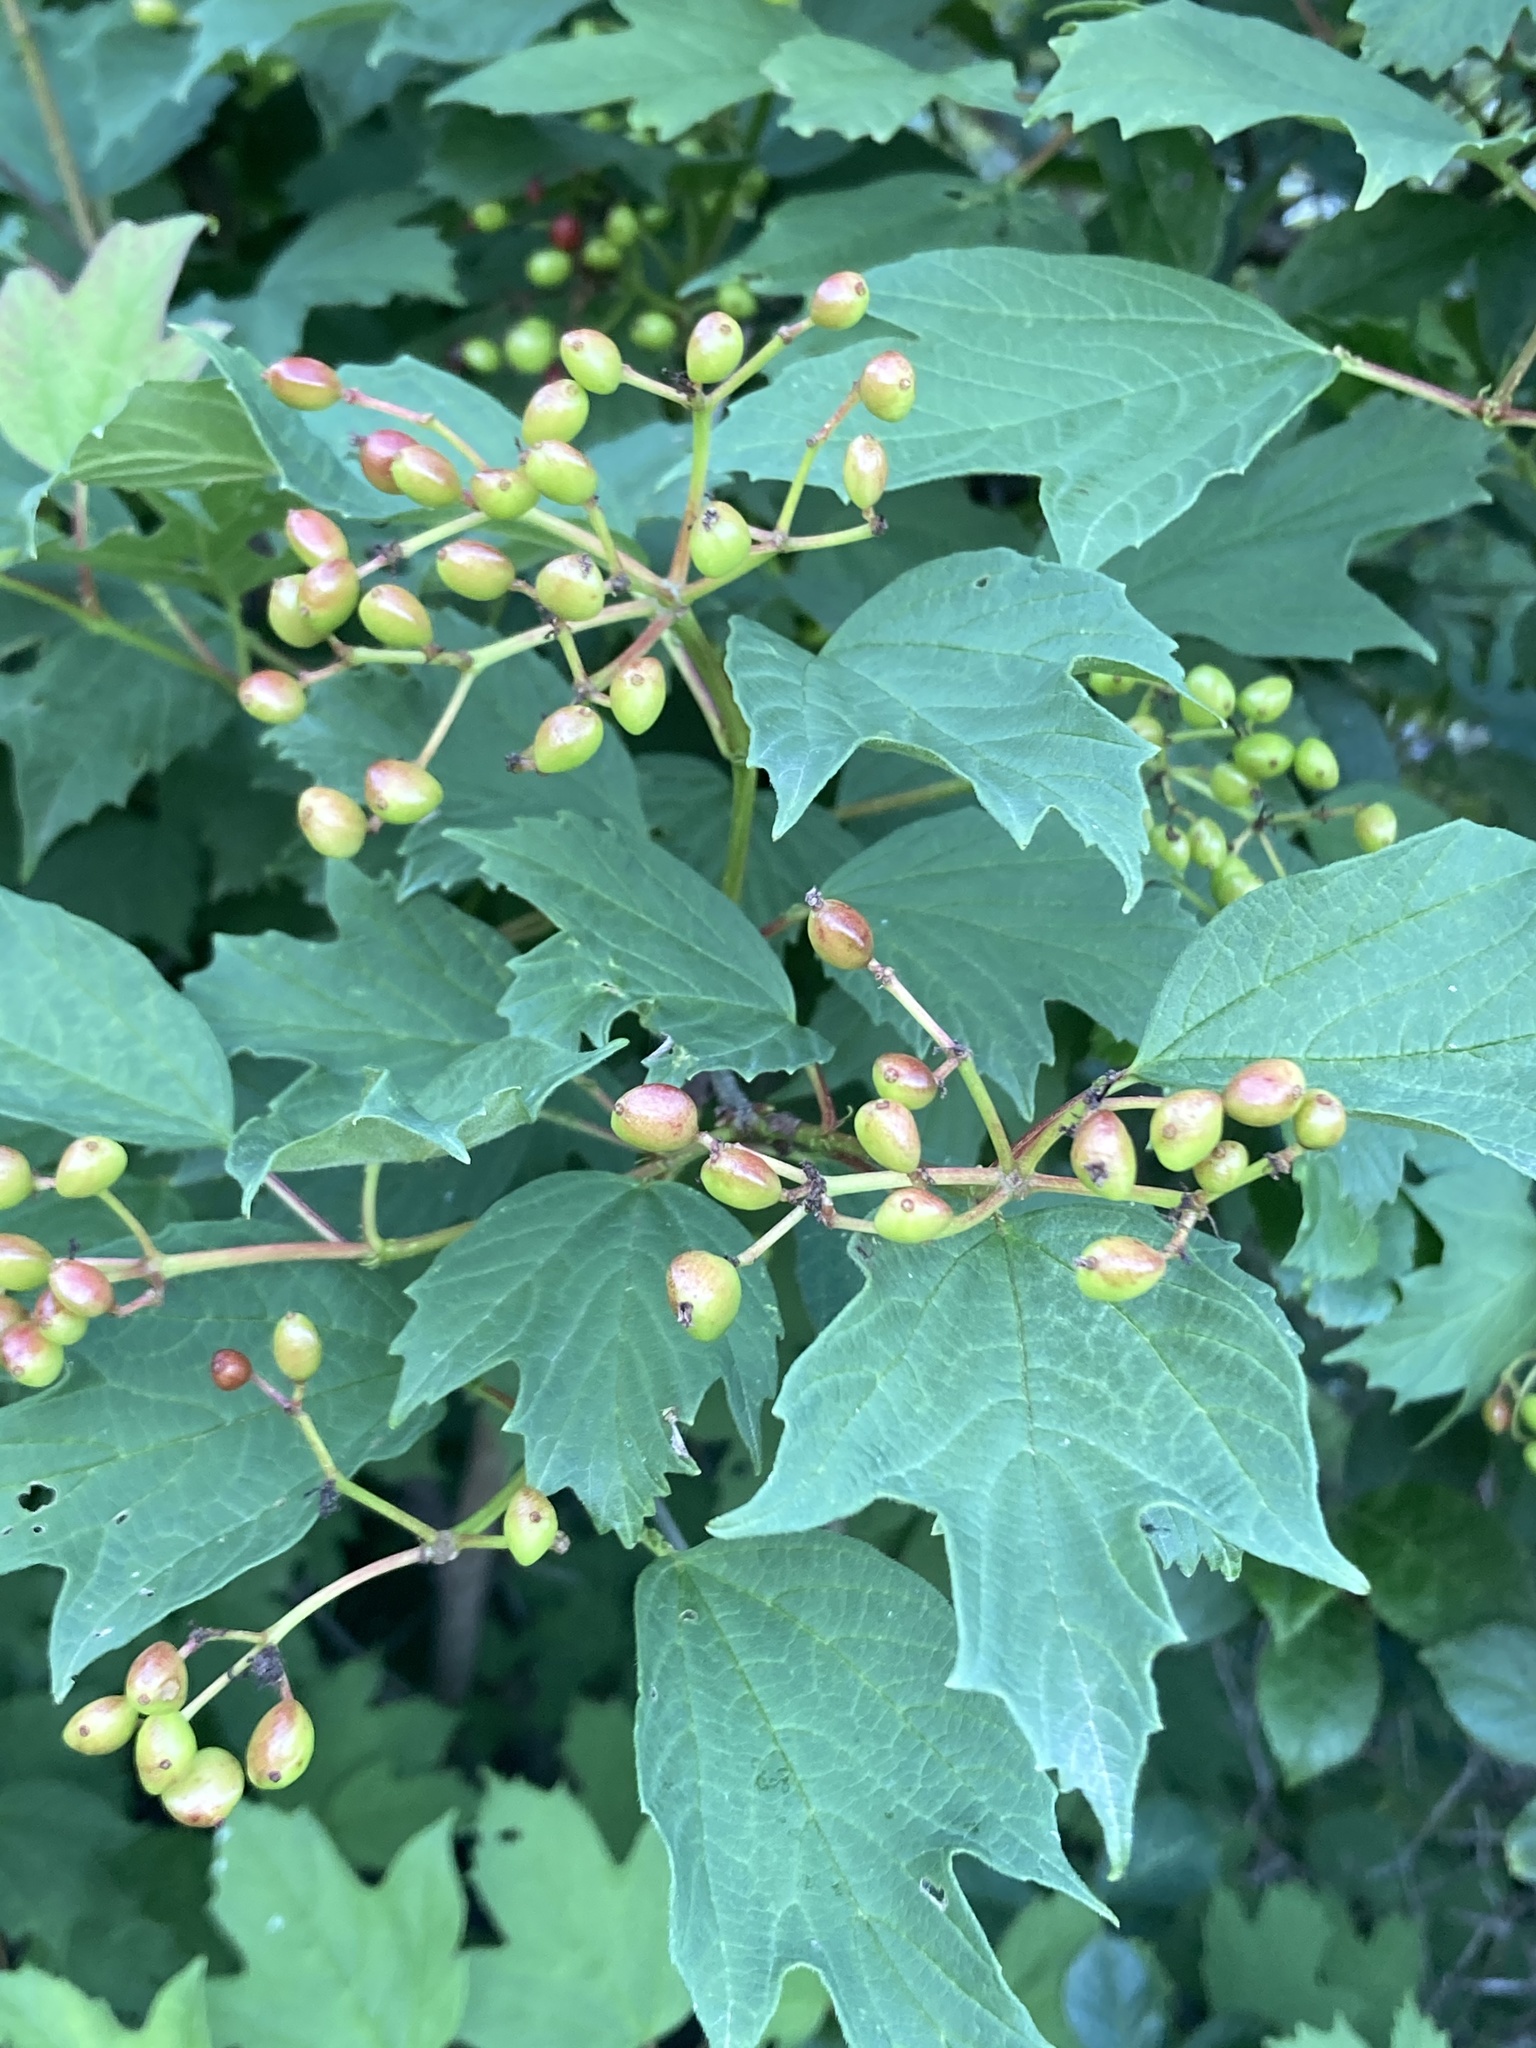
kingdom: Plantae
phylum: Tracheophyta
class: Magnoliopsida
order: Dipsacales
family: Viburnaceae
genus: Viburnum
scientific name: Viburnum opulus
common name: Guelder-rose
